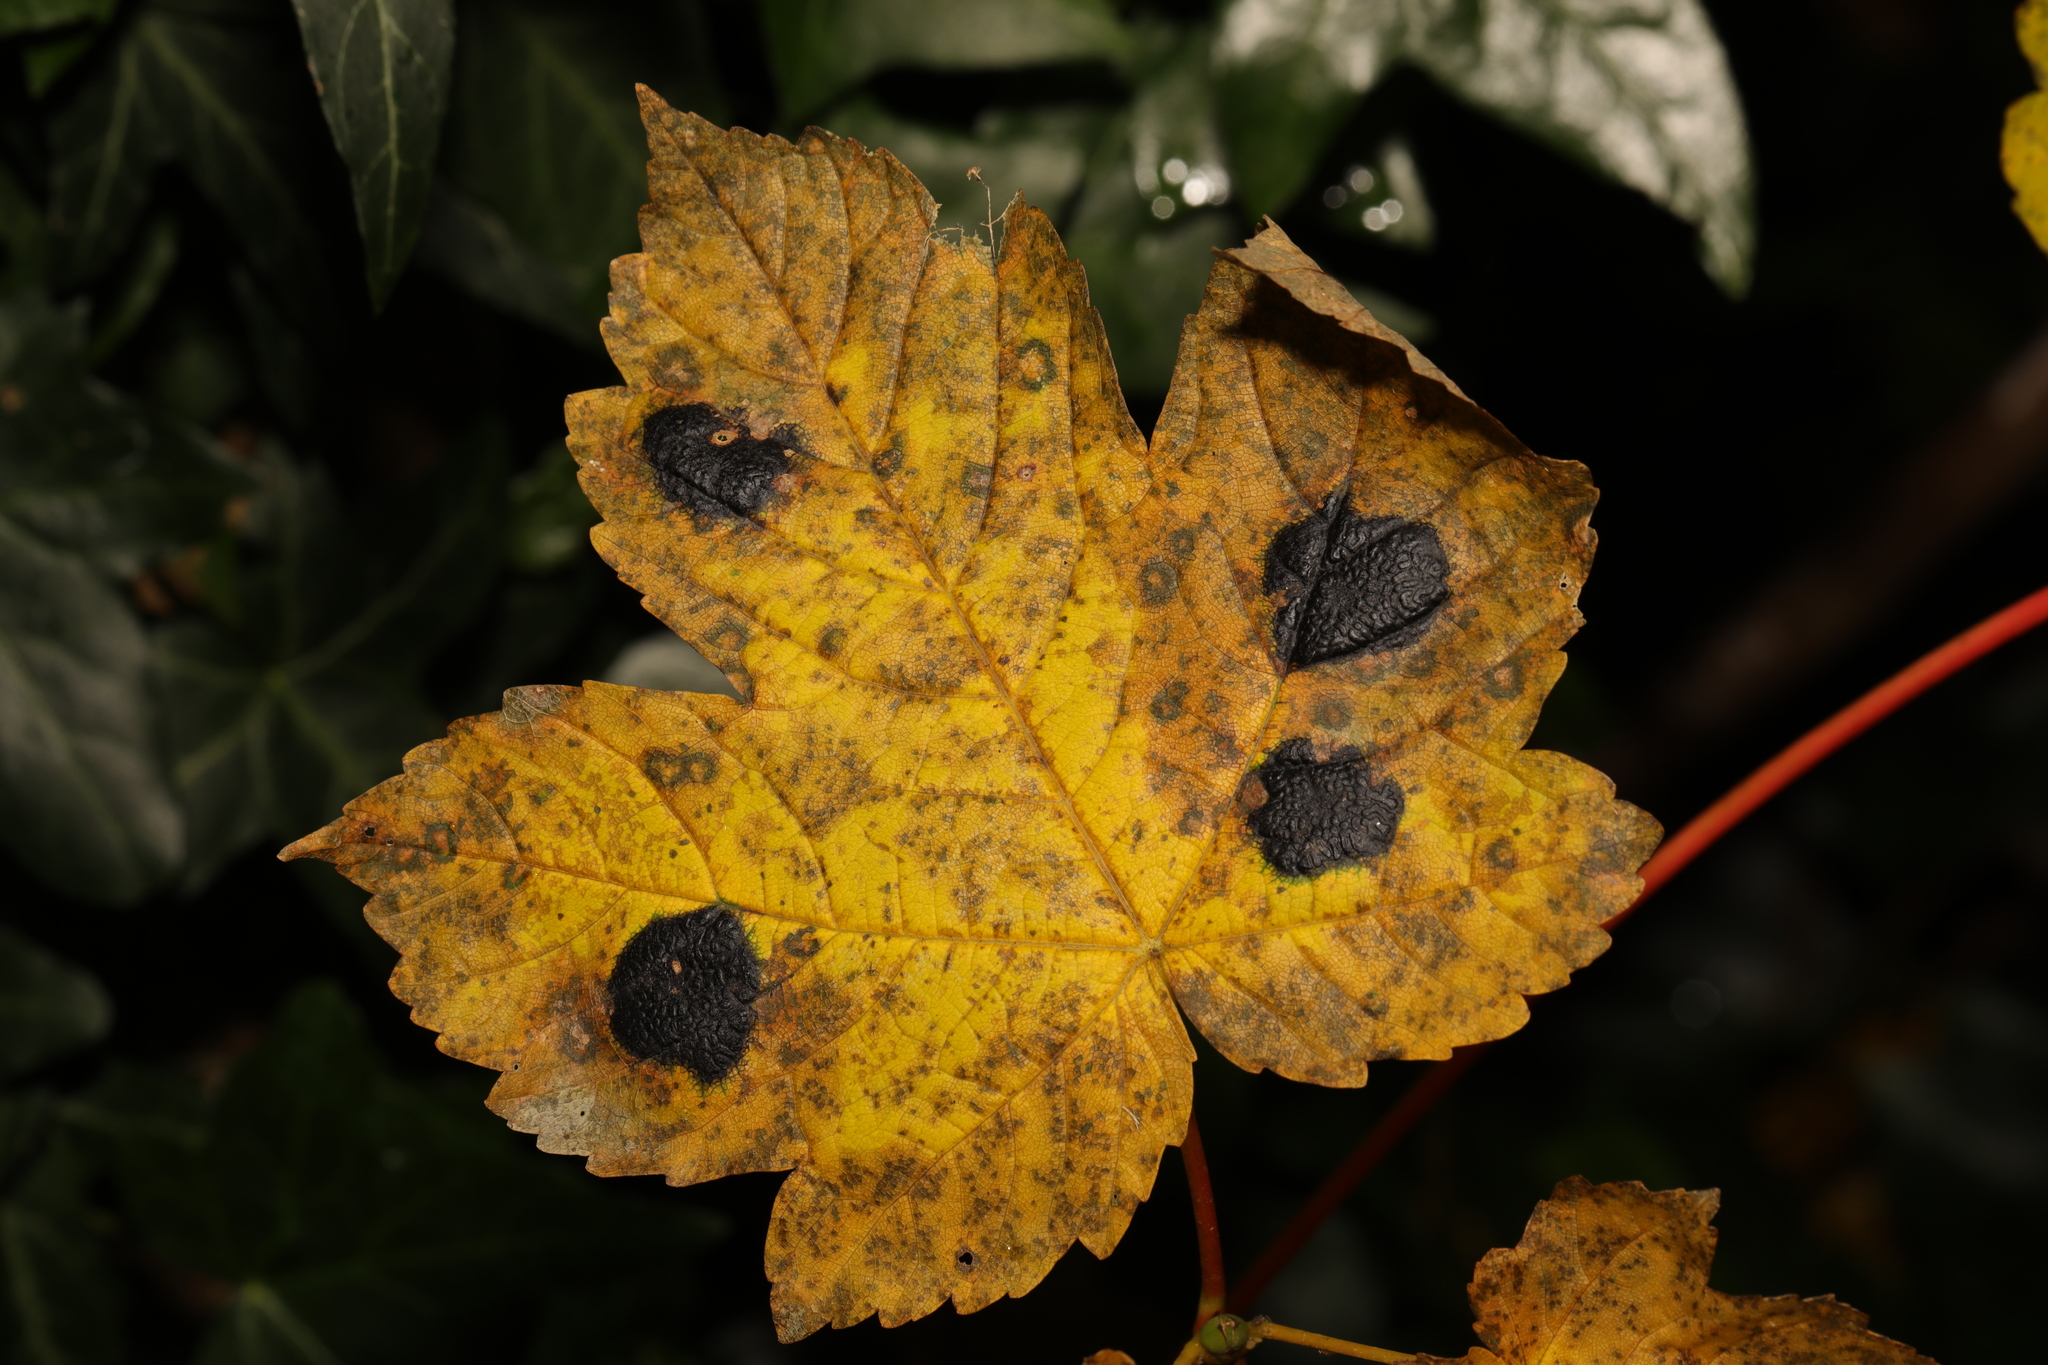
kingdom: Plantae
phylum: Tracheophyta
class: Magnoliopsida
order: Sapindales
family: Sapindaceae
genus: Acer
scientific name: Acer pseudoplatanus
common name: Sycamore
